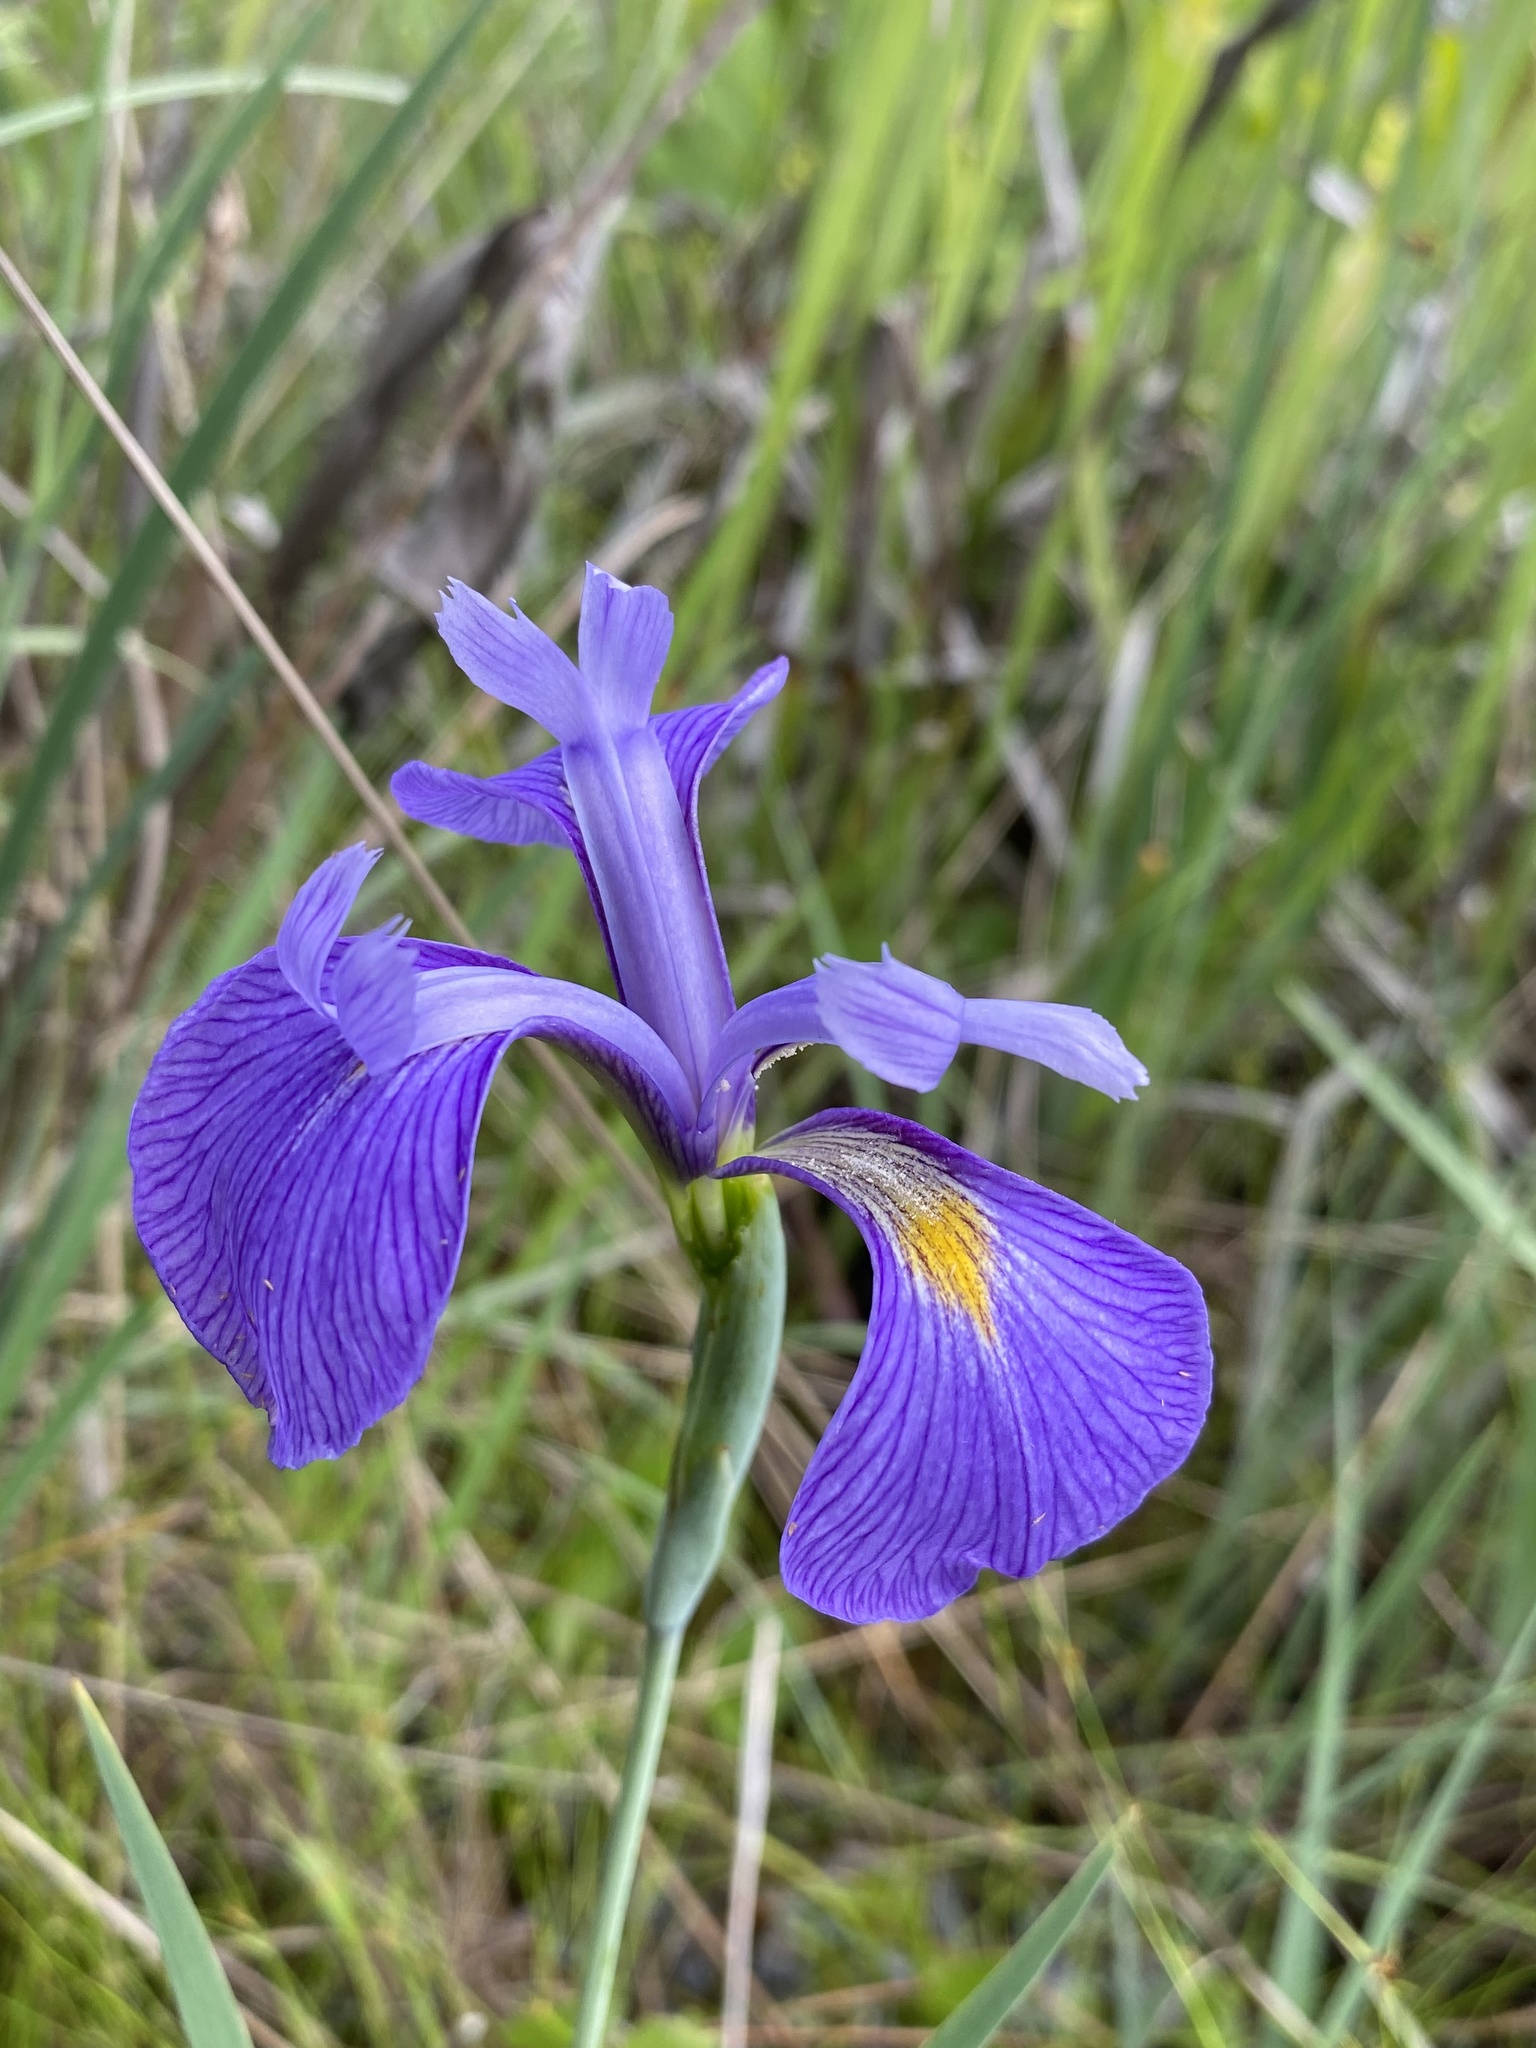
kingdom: Plantae
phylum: Tracheophyta
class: Liliopsida
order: Asparagales
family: Iridaceae
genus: Iris
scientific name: Iris tridentata
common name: Savannah iris
